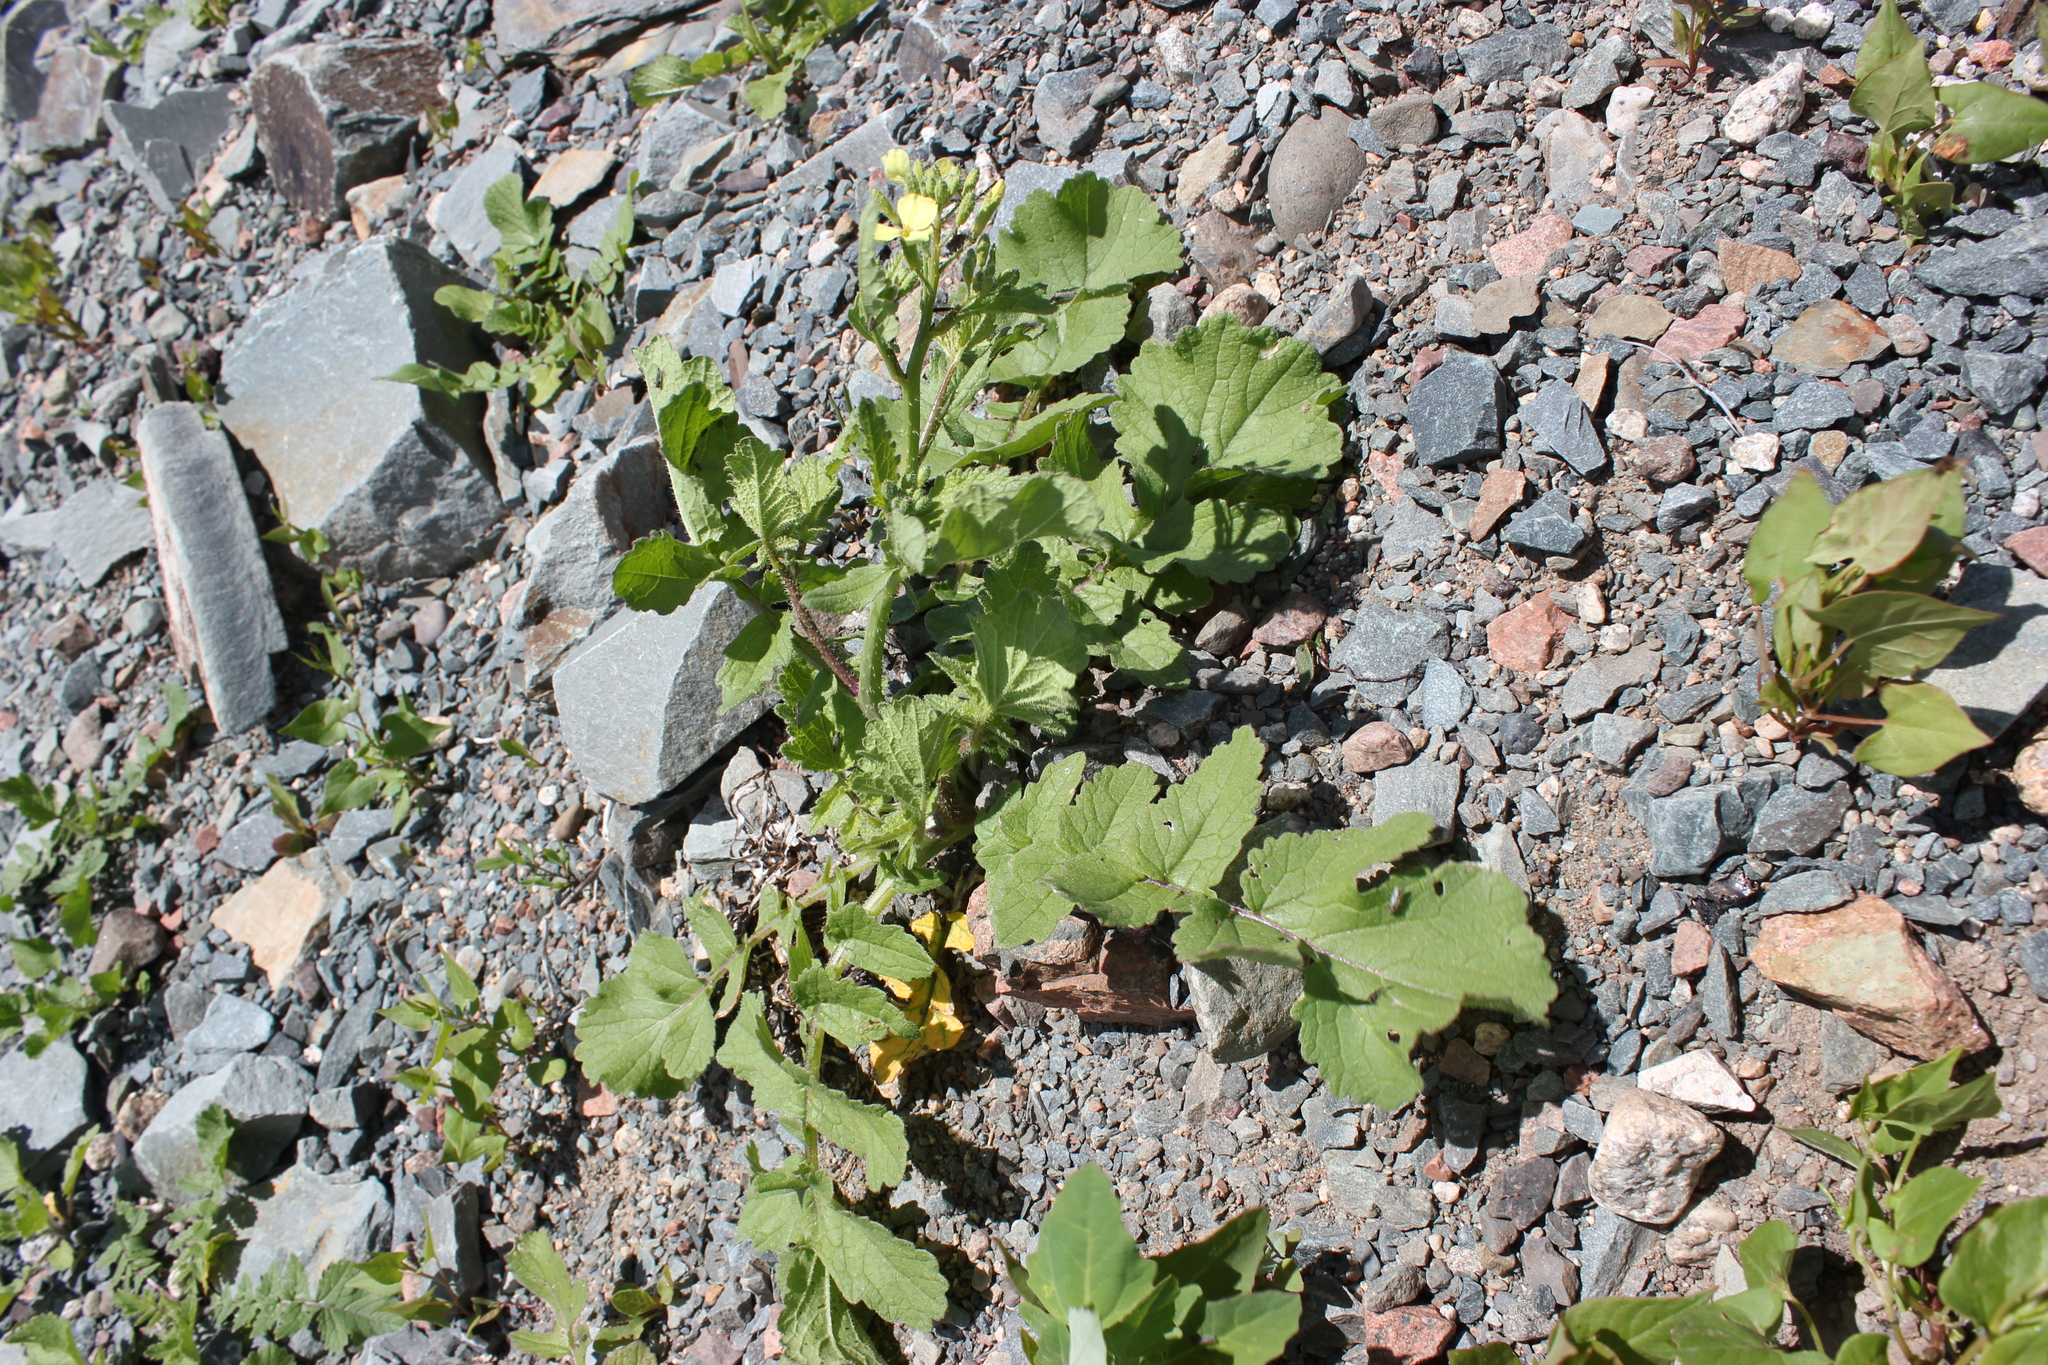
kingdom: Plantae
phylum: Tracheophyta
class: Magnoliopsida
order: Brassicales
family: Brassicaceae
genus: Raphanus
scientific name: Raphanus raphanistrum
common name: Wild radish
